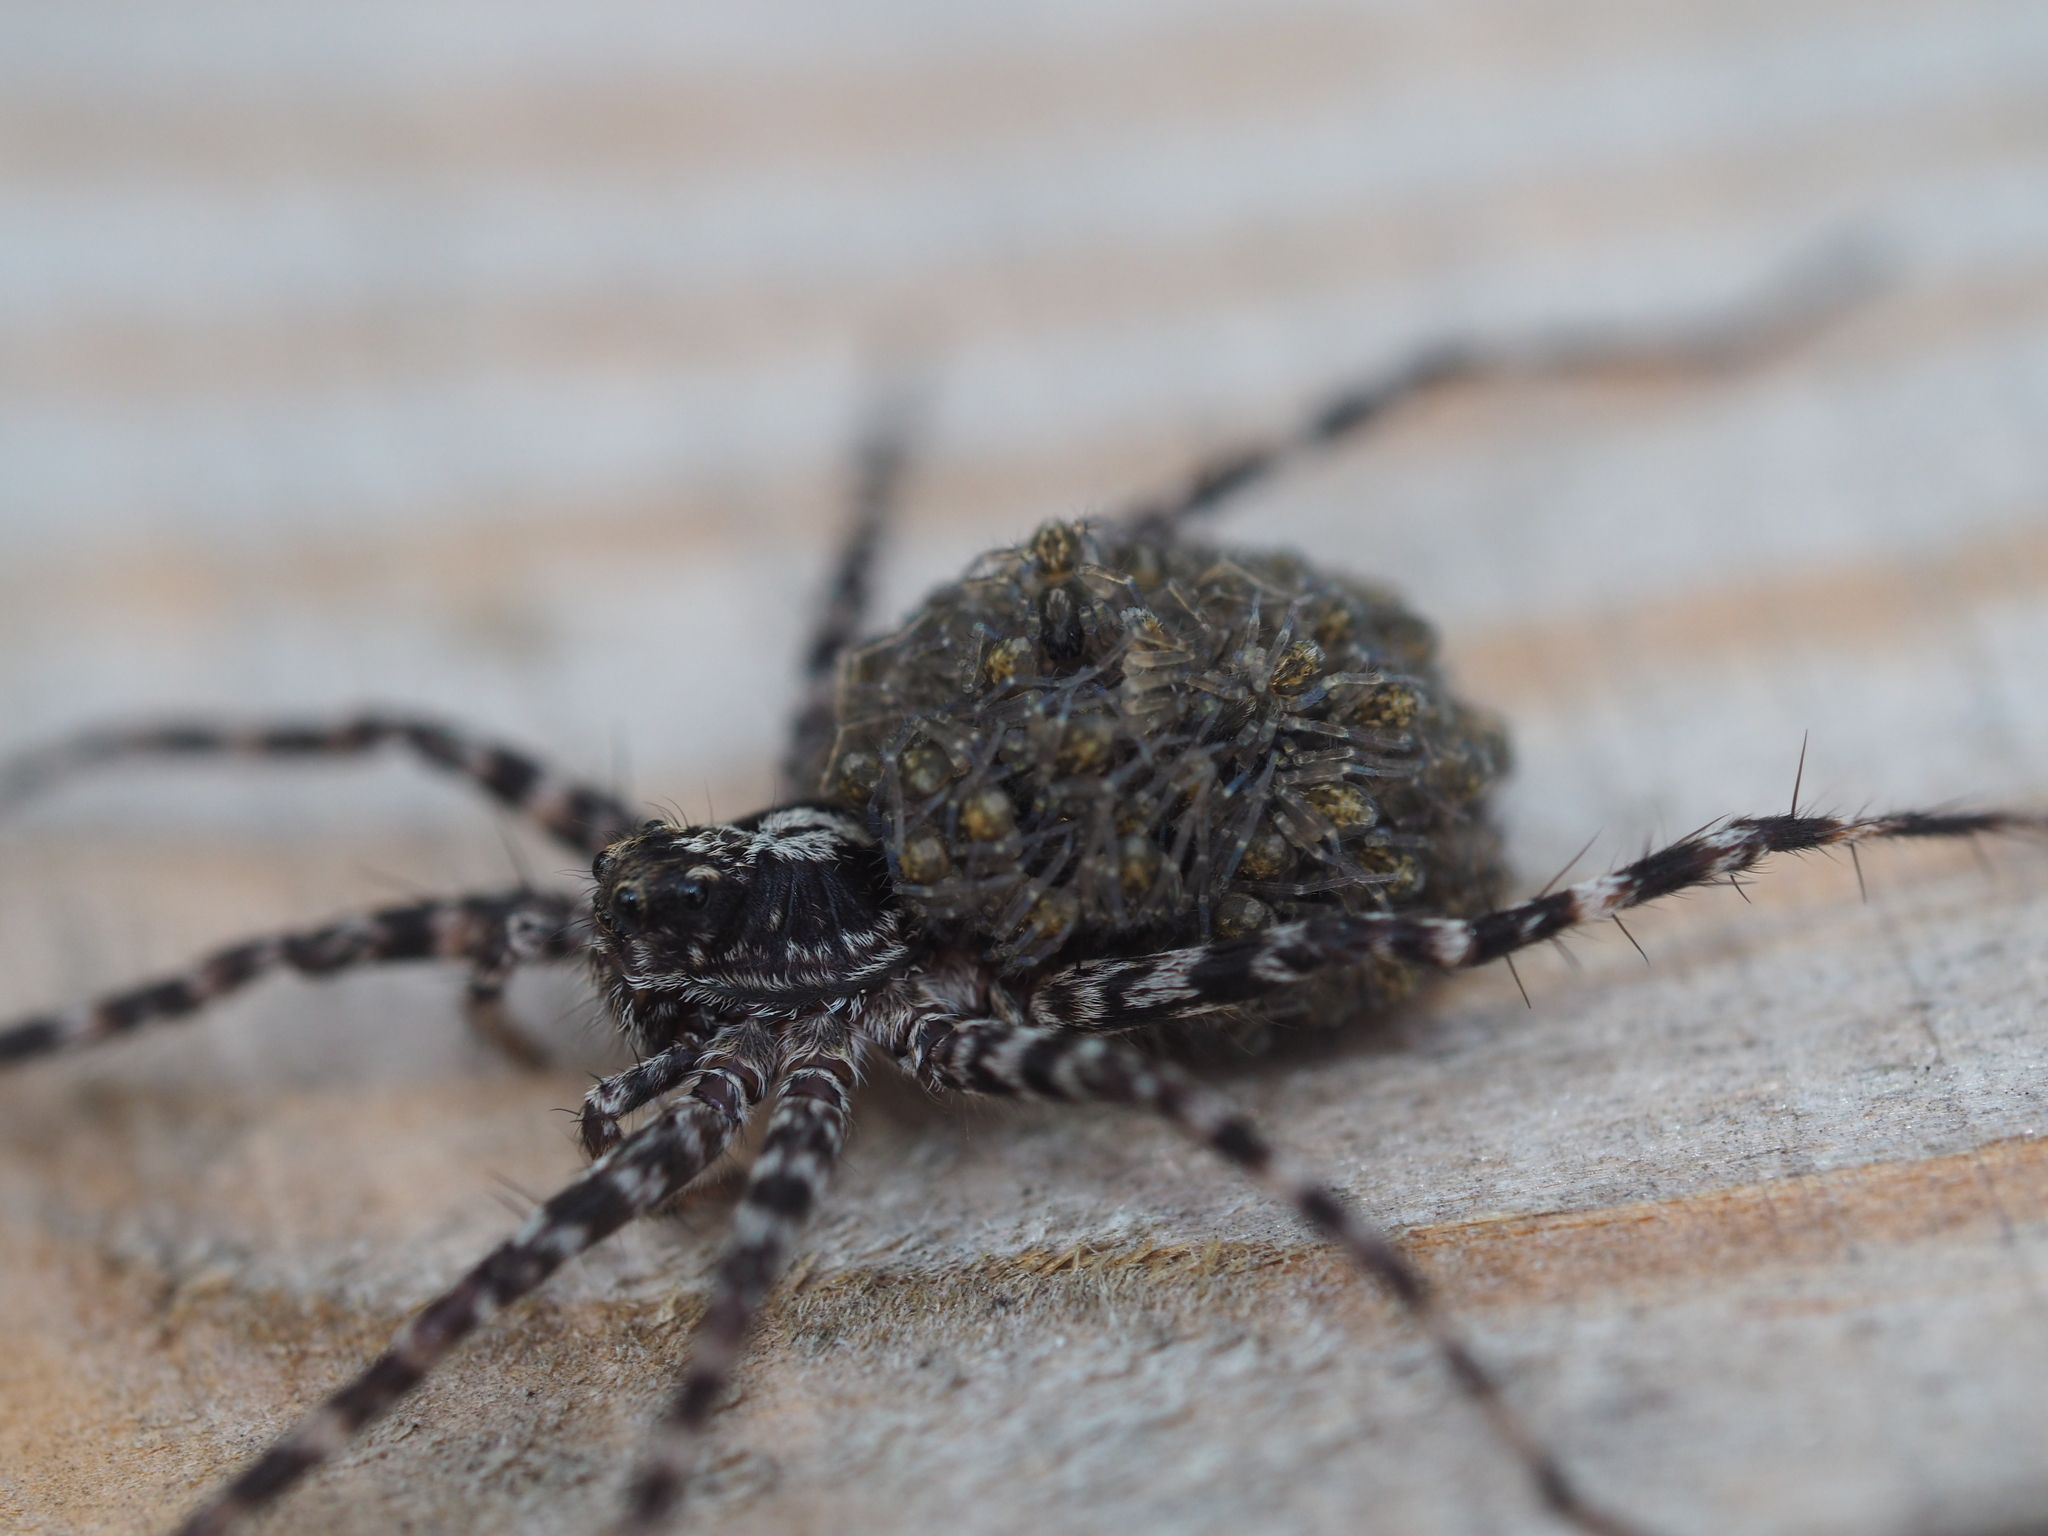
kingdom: Animalia
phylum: Arthropoda
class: Arachnida
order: Araneae
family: Lycosidae
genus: Acantholycosa
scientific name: Acantholycosa lignaria
